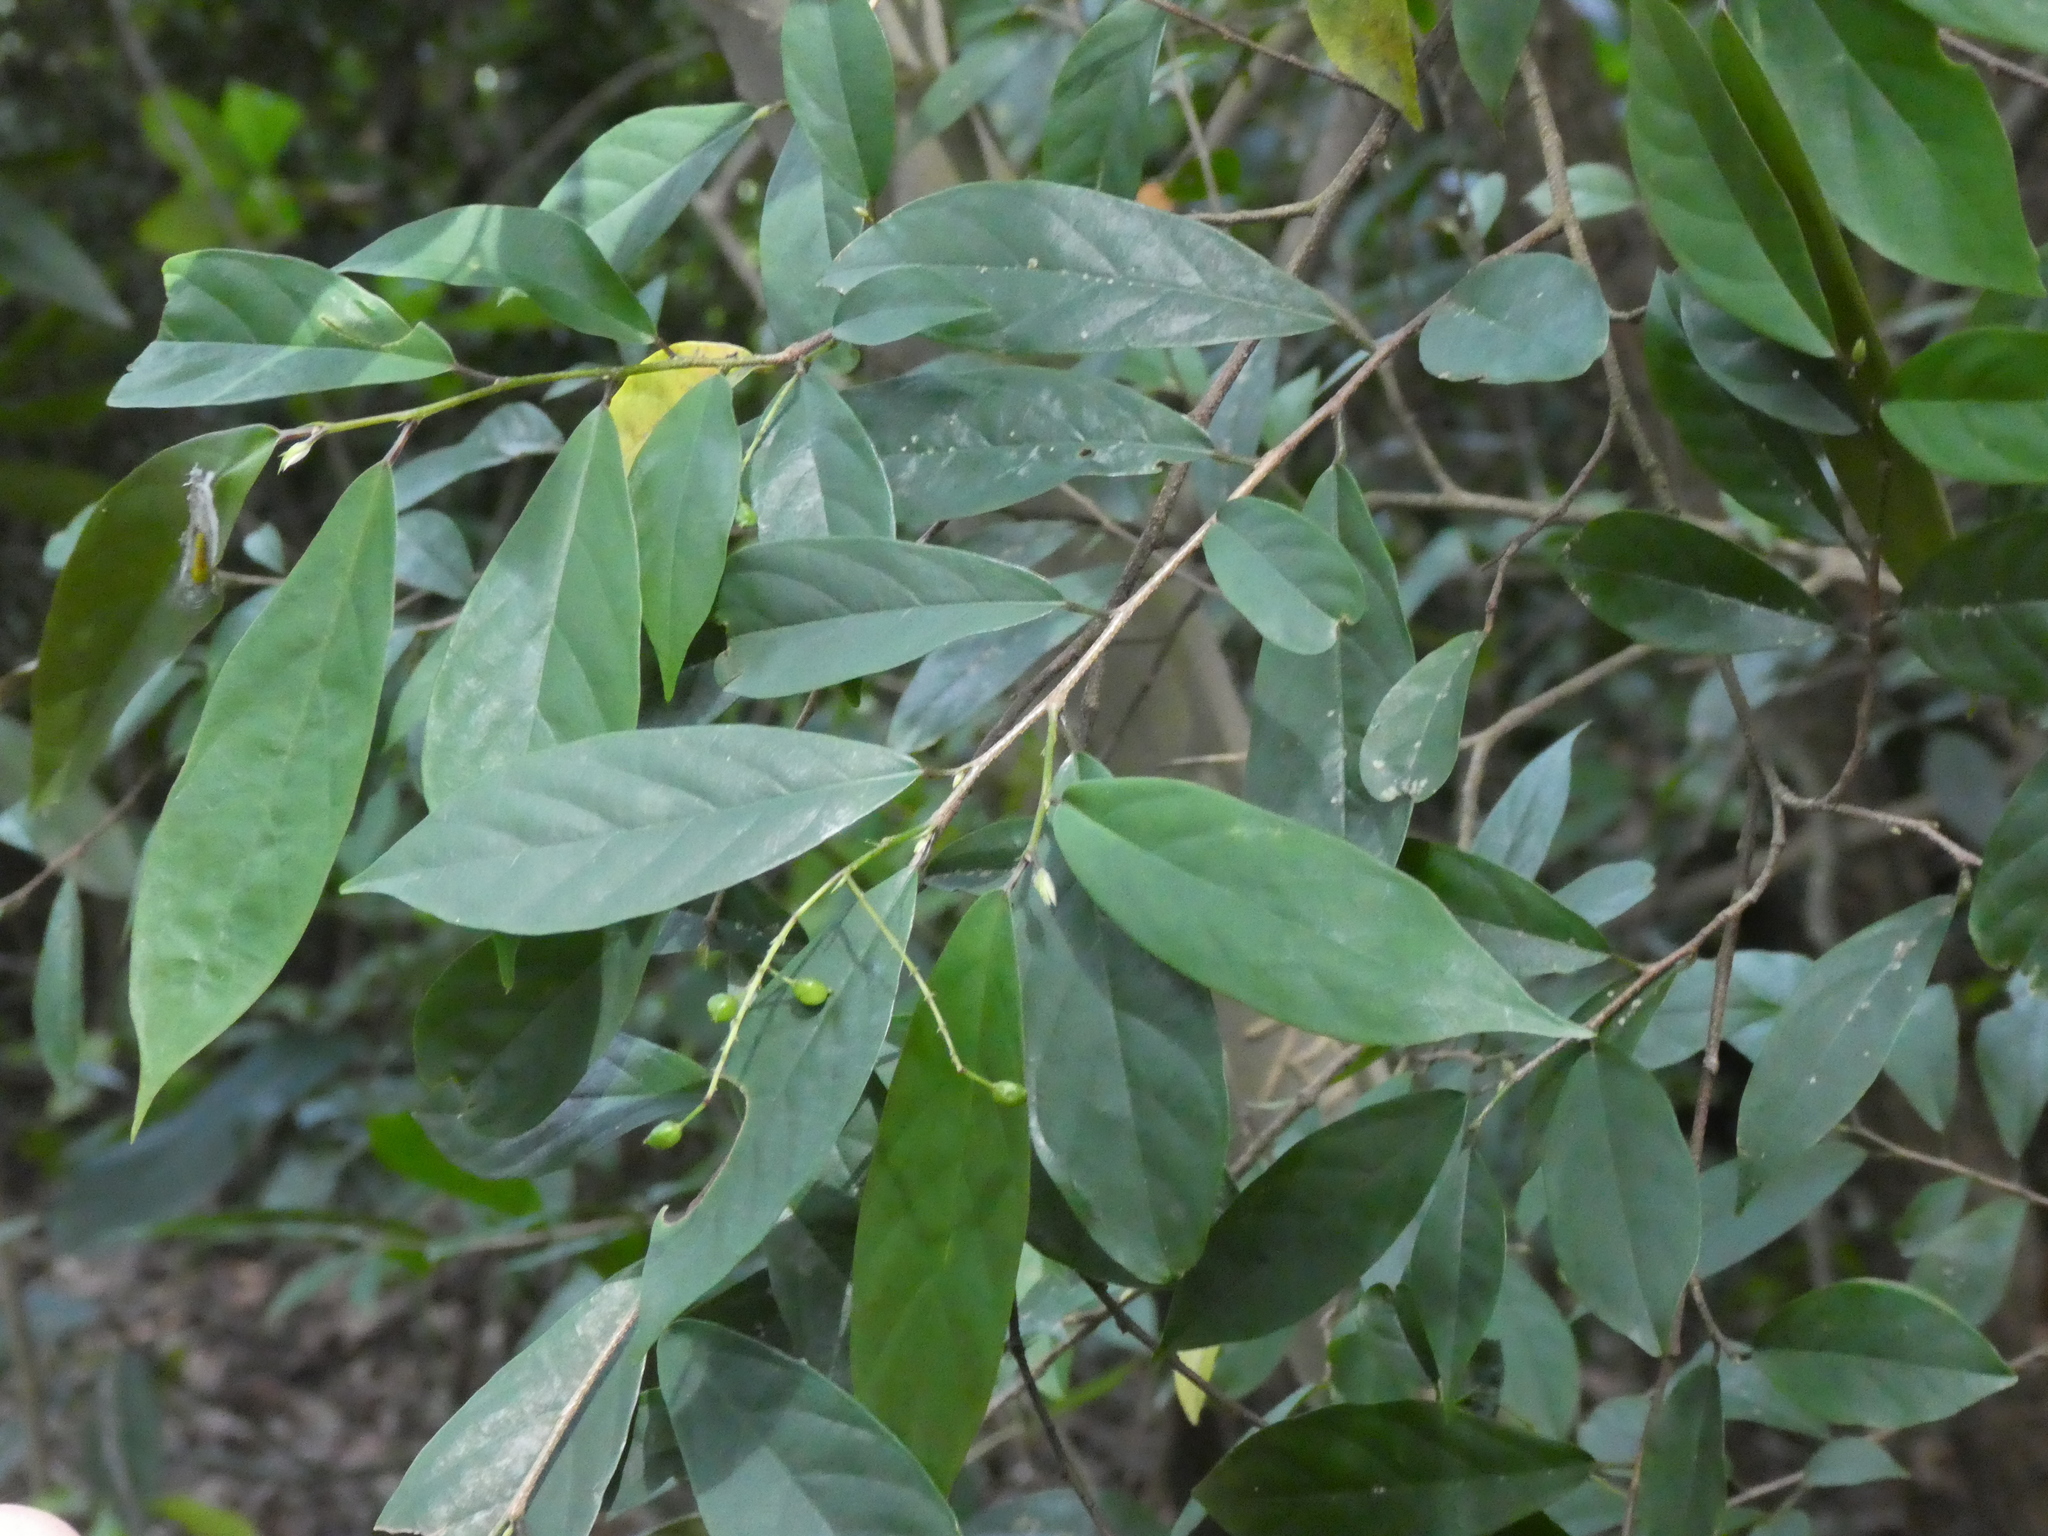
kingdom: Plantae
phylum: Tracheophyta
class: Magnoliopsida
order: Malpighiales
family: Phyllanthaceae
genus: Antidesma
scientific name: Antidesma japonicum
